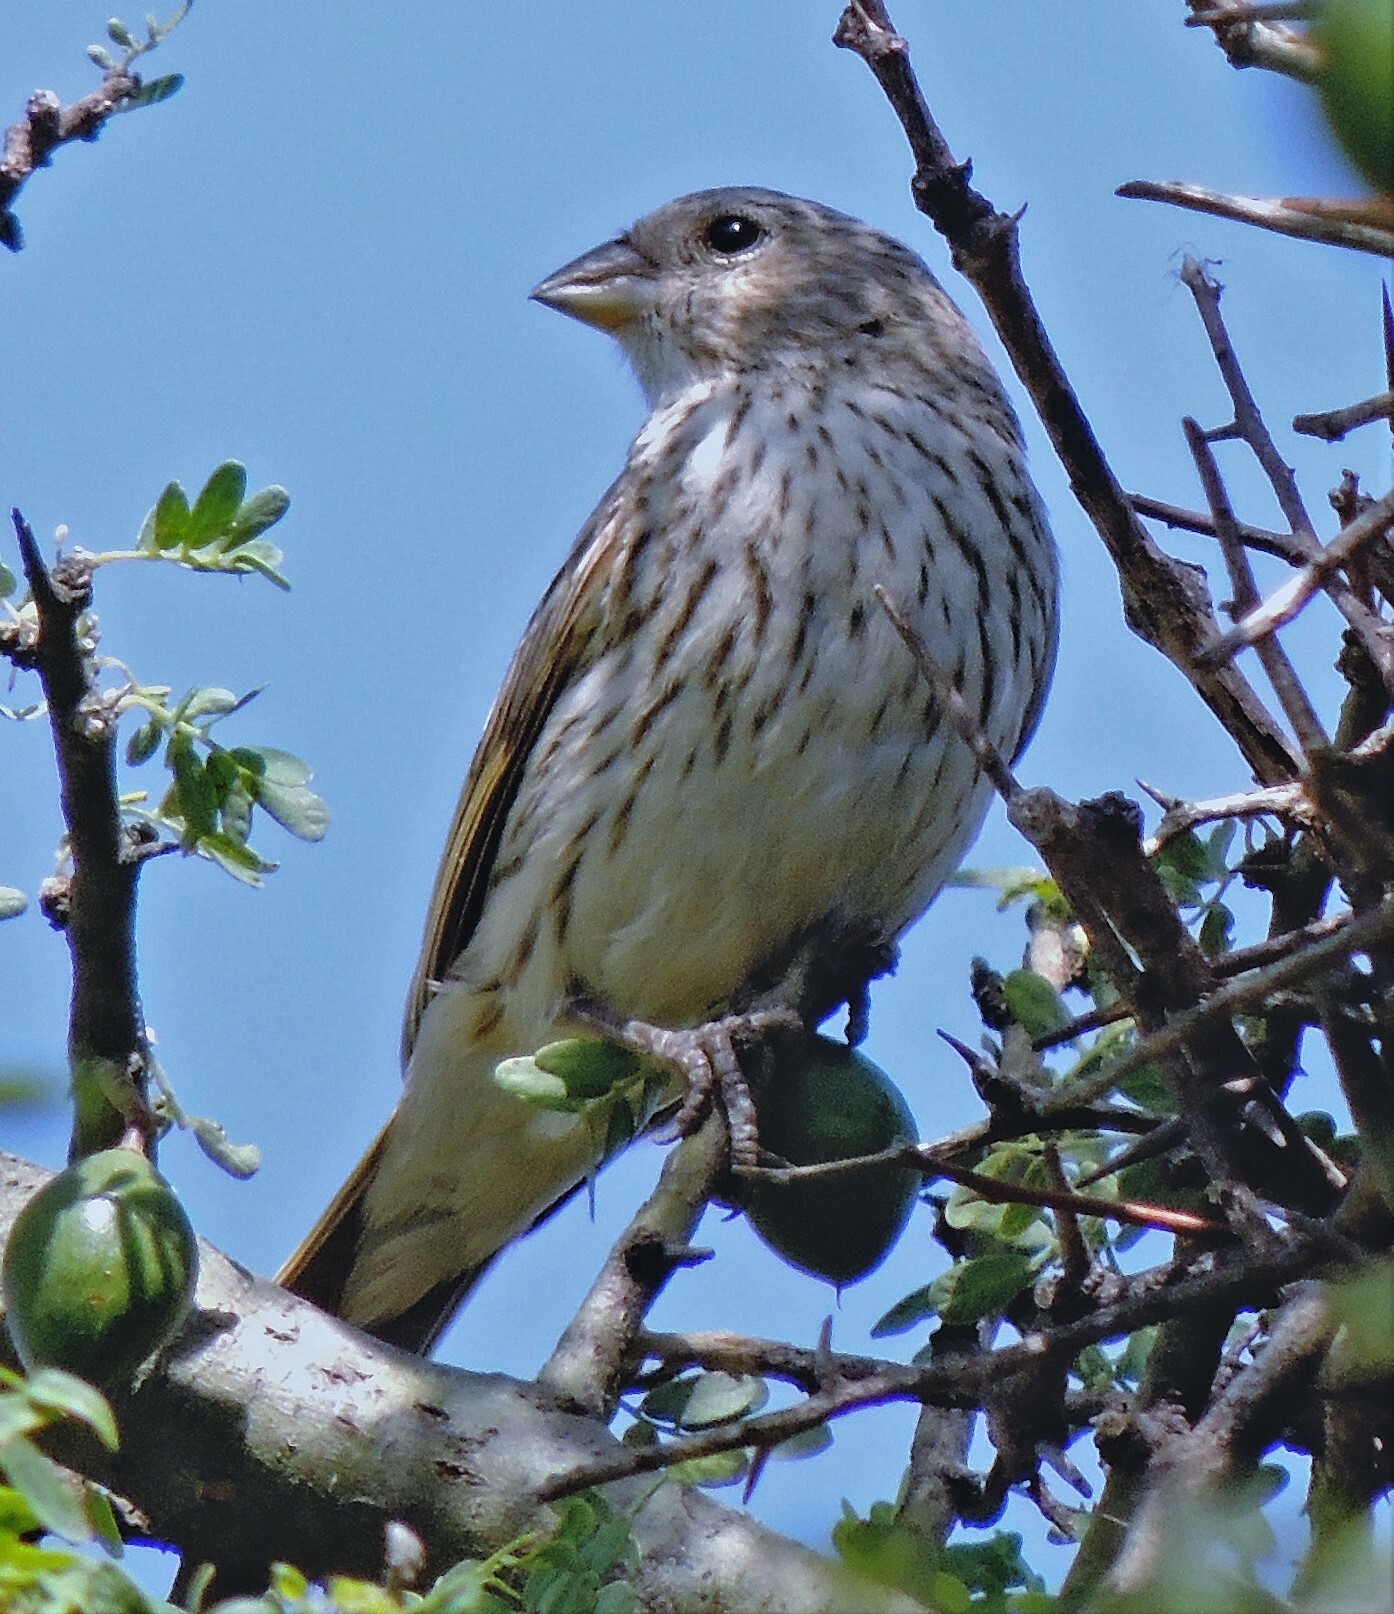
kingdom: Animalia
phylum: Chordata
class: Aves
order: Passeriformes
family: Thraupidae
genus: Sicalis
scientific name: Sicalis flaveola
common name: Saffron finch
